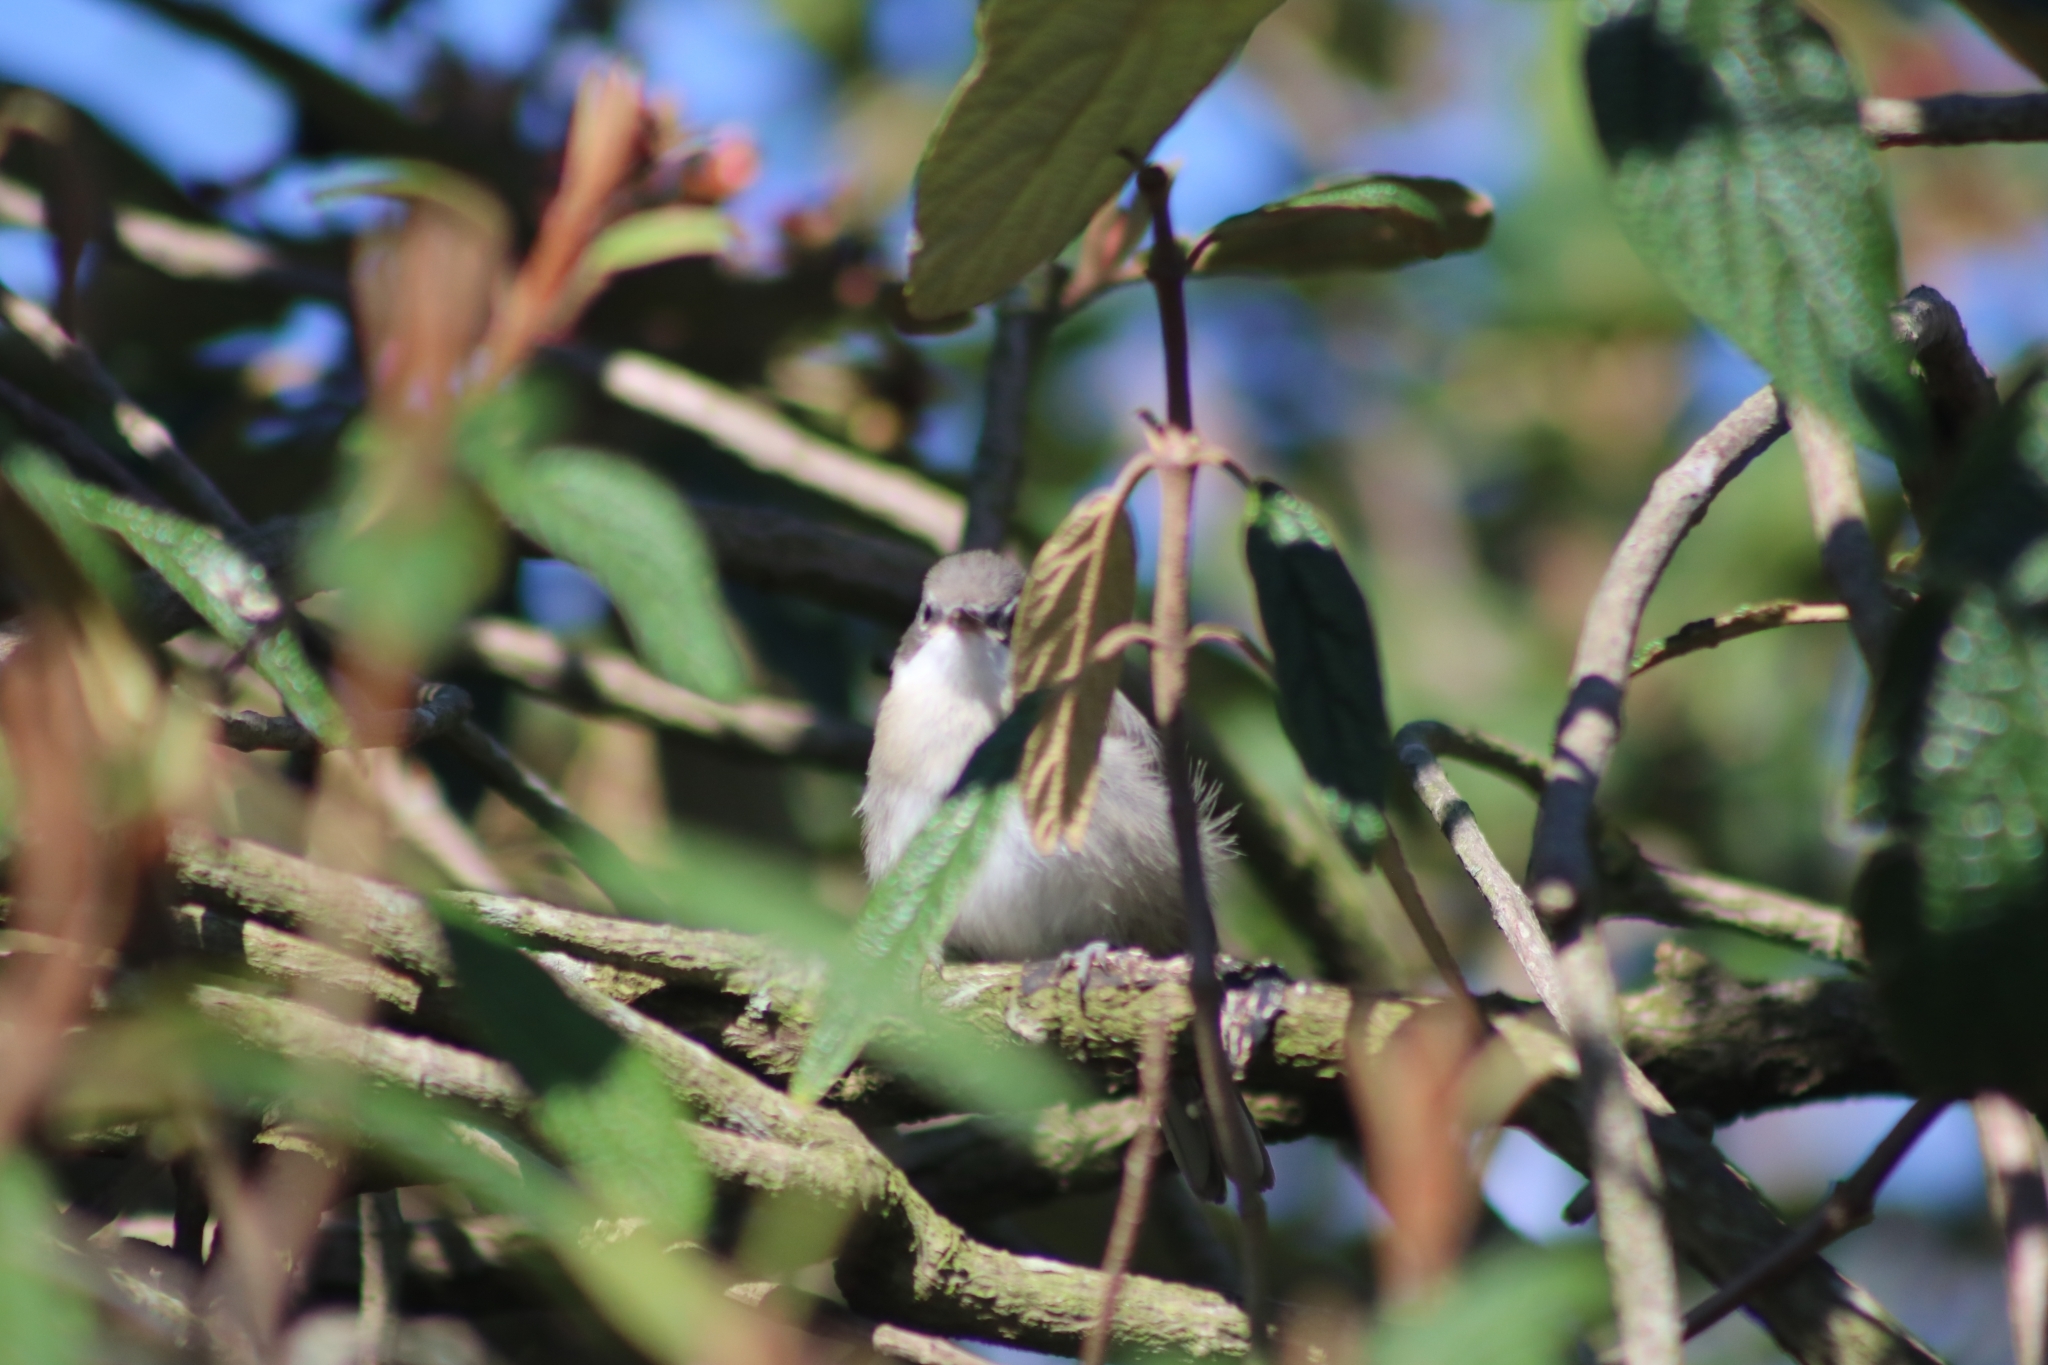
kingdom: Animalia
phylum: Chordata
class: Aves
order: Passeriformes
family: Sylviidae
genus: Sylvia
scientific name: Sylvia curruca
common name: Lesser whitethroat
